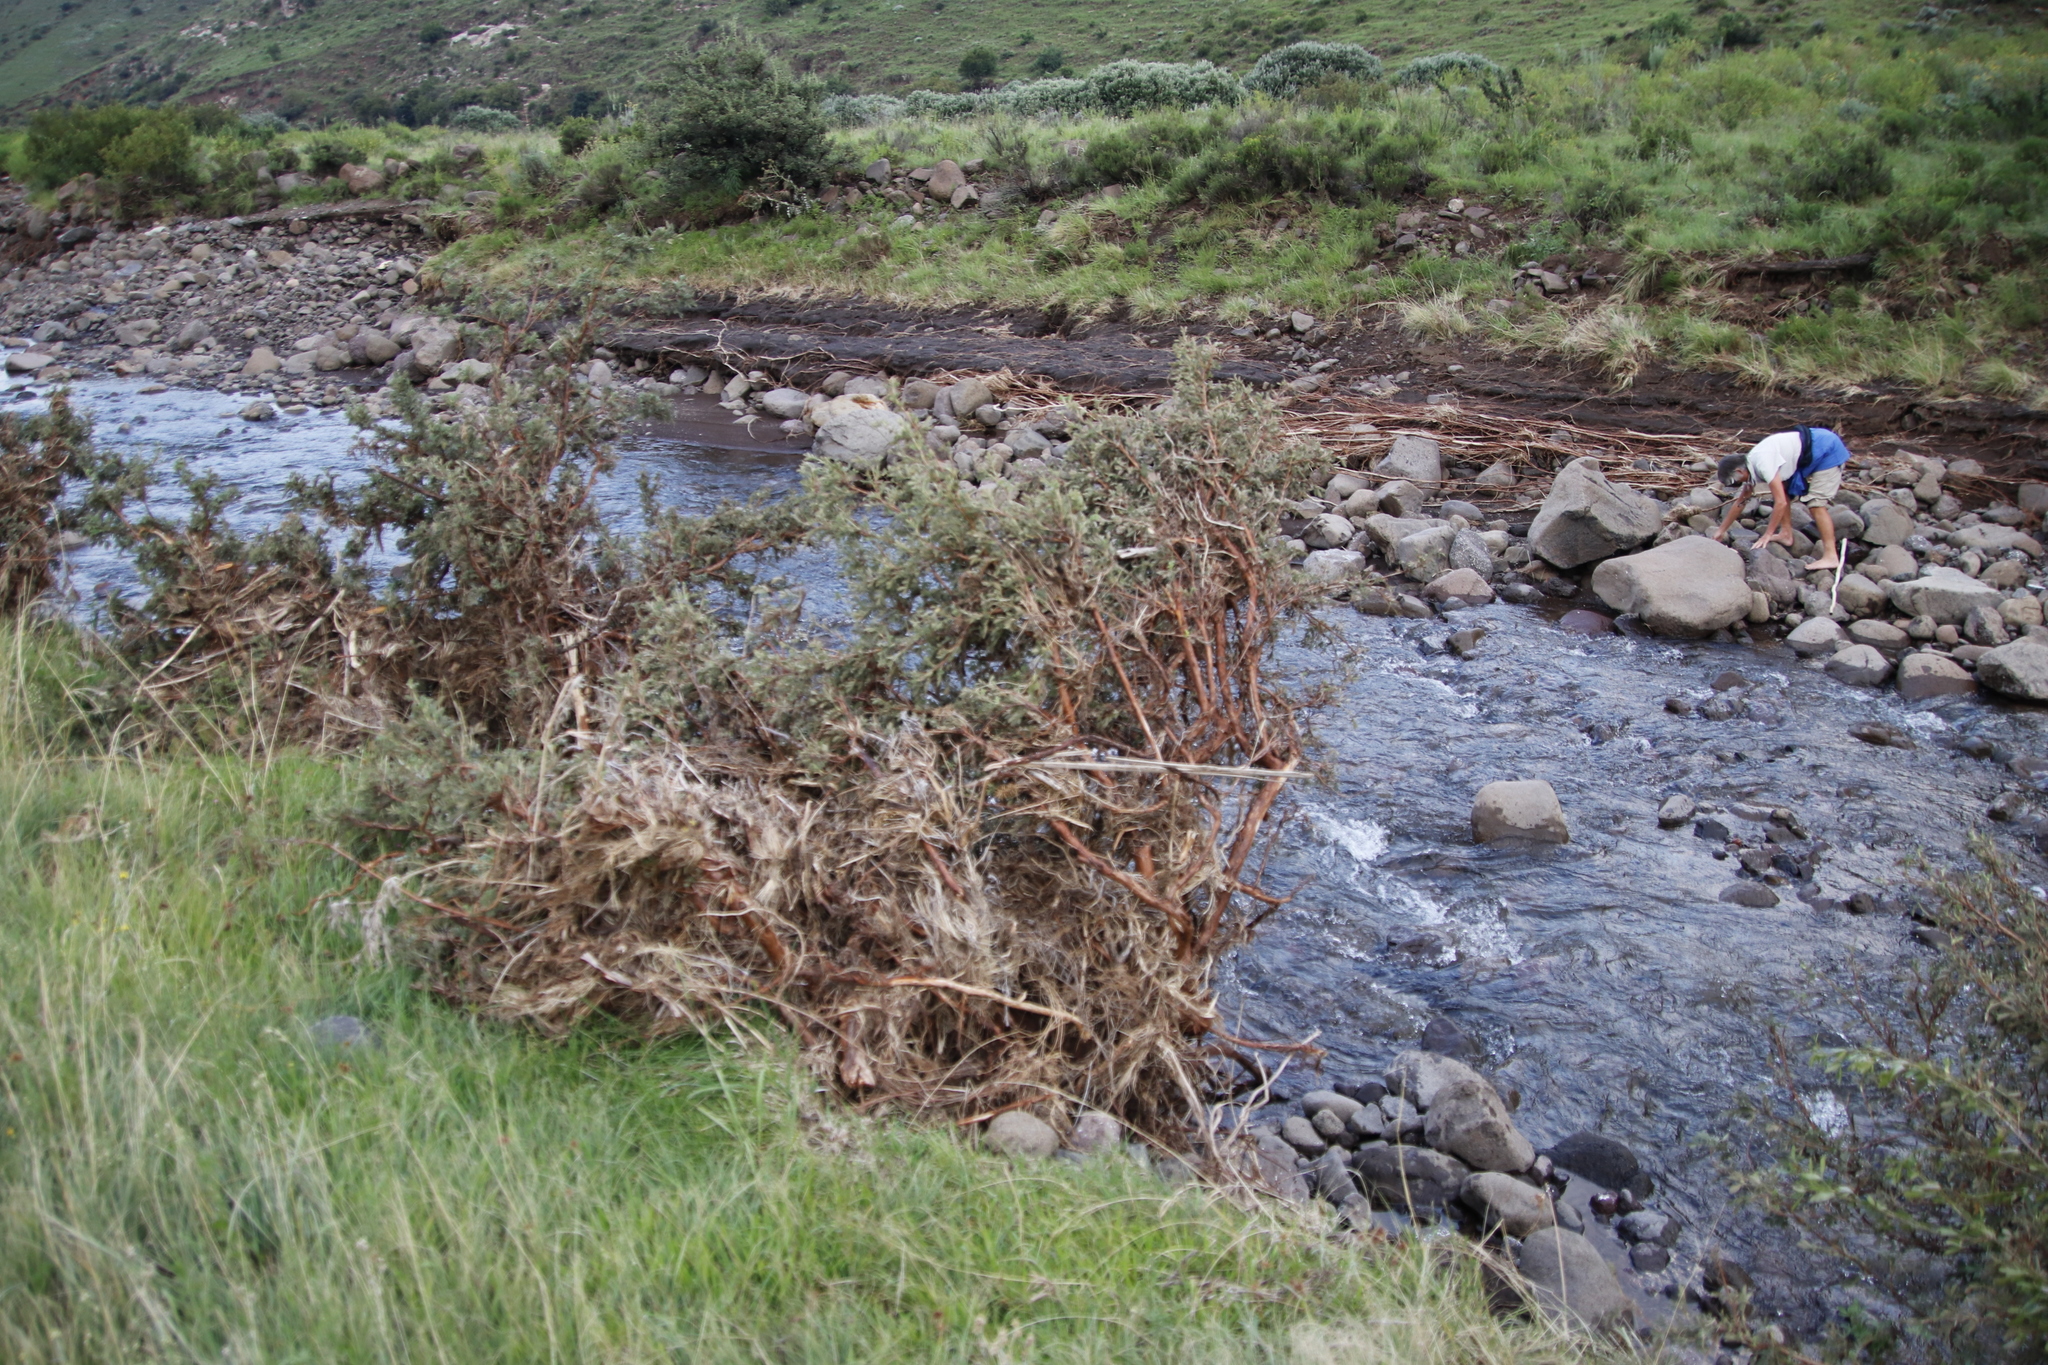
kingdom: Plantae
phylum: Tracheophyta
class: Magnoliopsida
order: Rosales
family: Rosaceae
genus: Leucosidea
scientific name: Leucosidea sericea
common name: Oldwood
